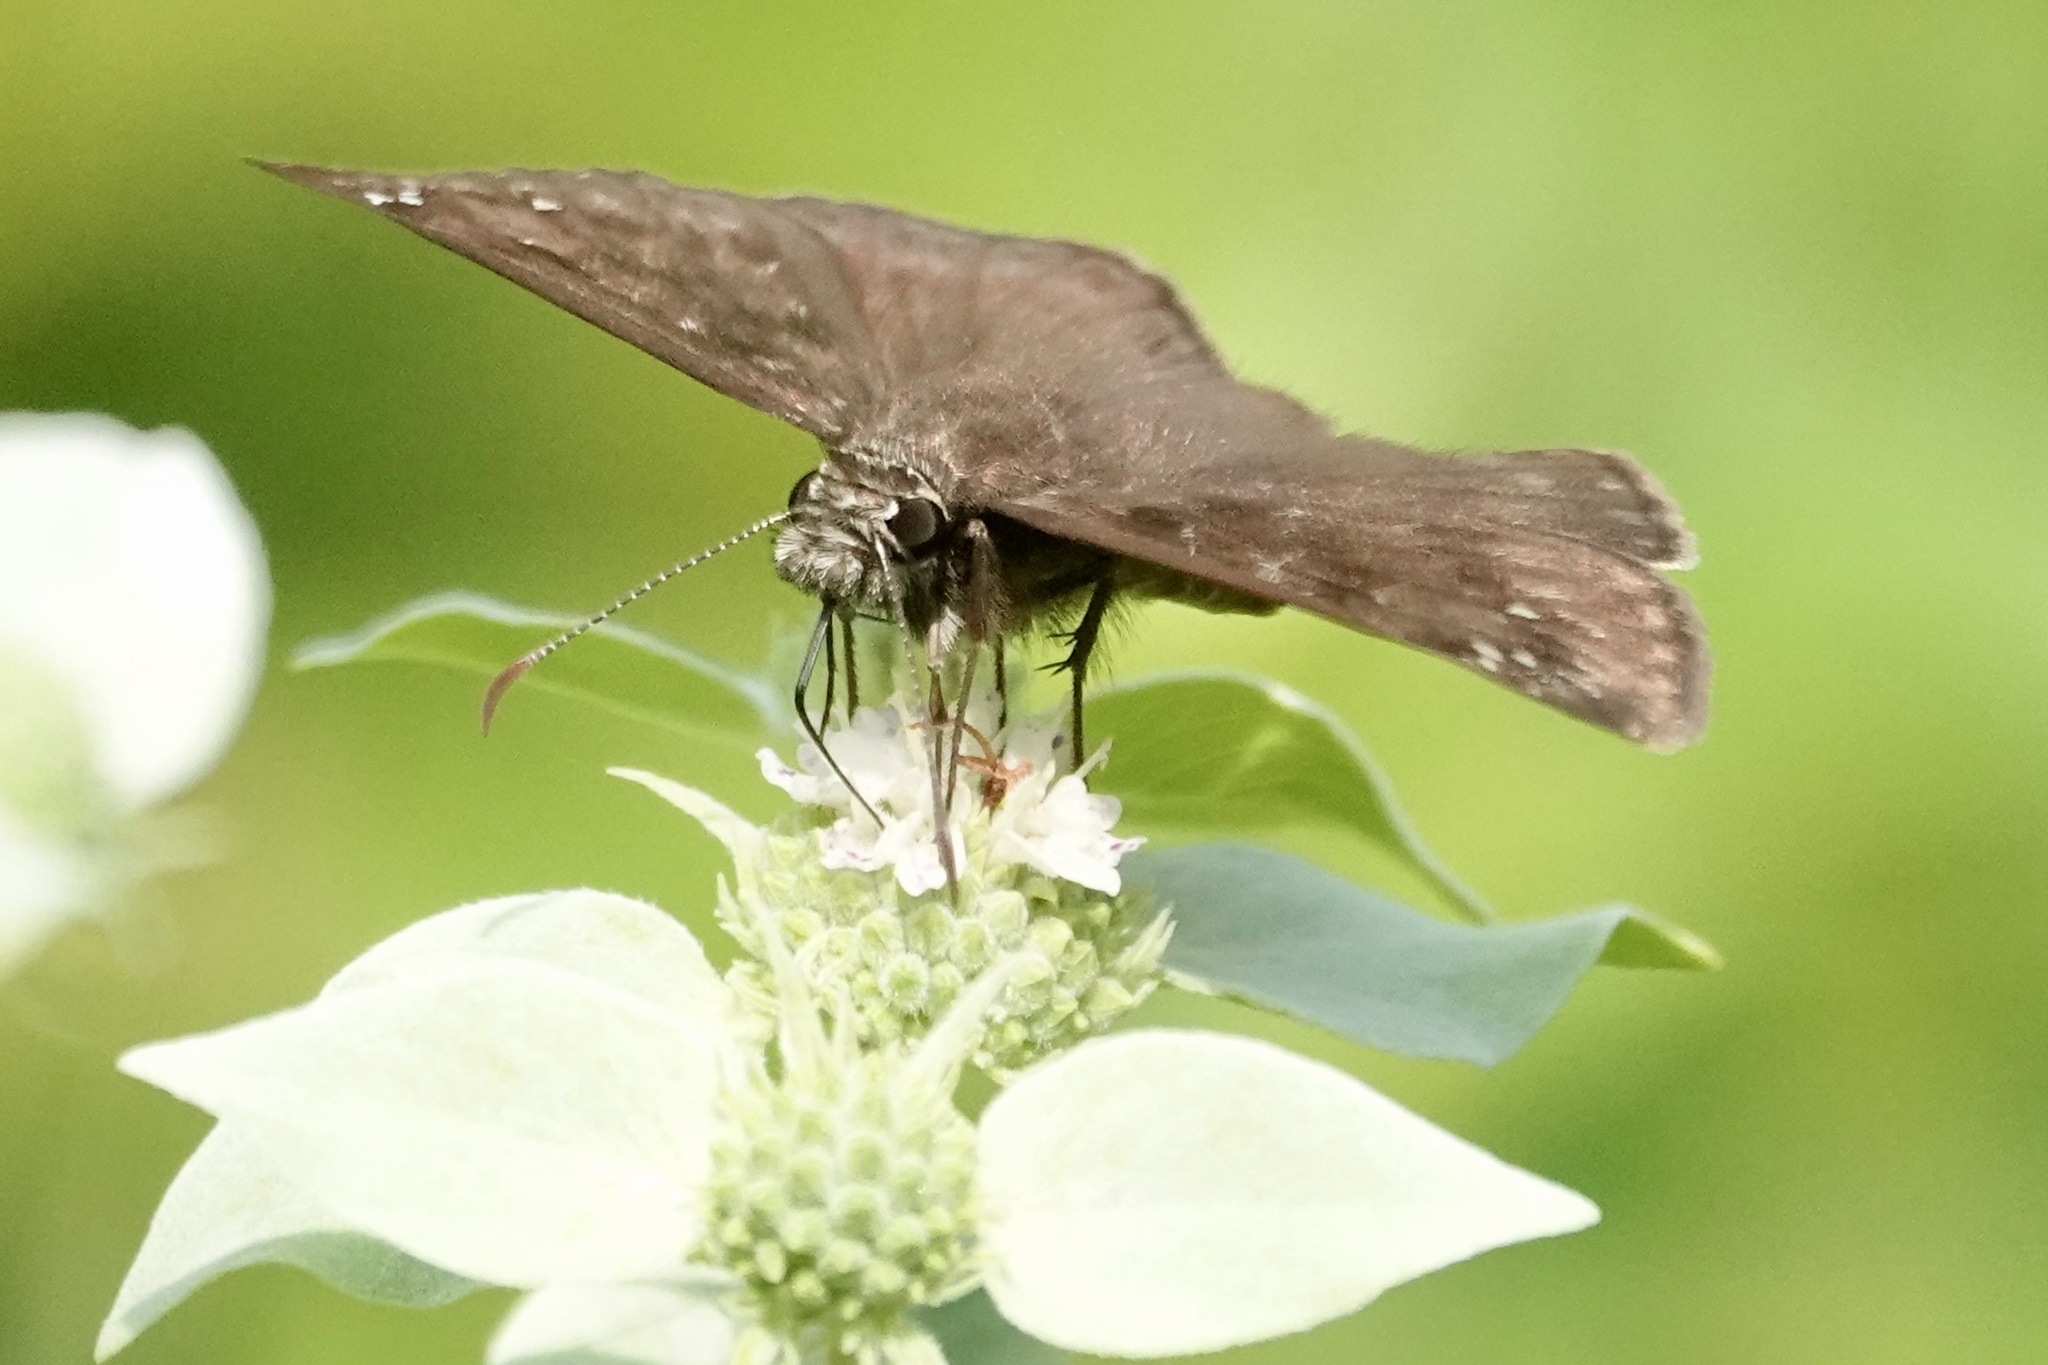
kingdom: Animalia
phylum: Arthropoda
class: Insecta
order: Lepidoptera
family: Hesperiidae
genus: Erynnis
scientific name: Erynnis horatius
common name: Horace's duskywing
